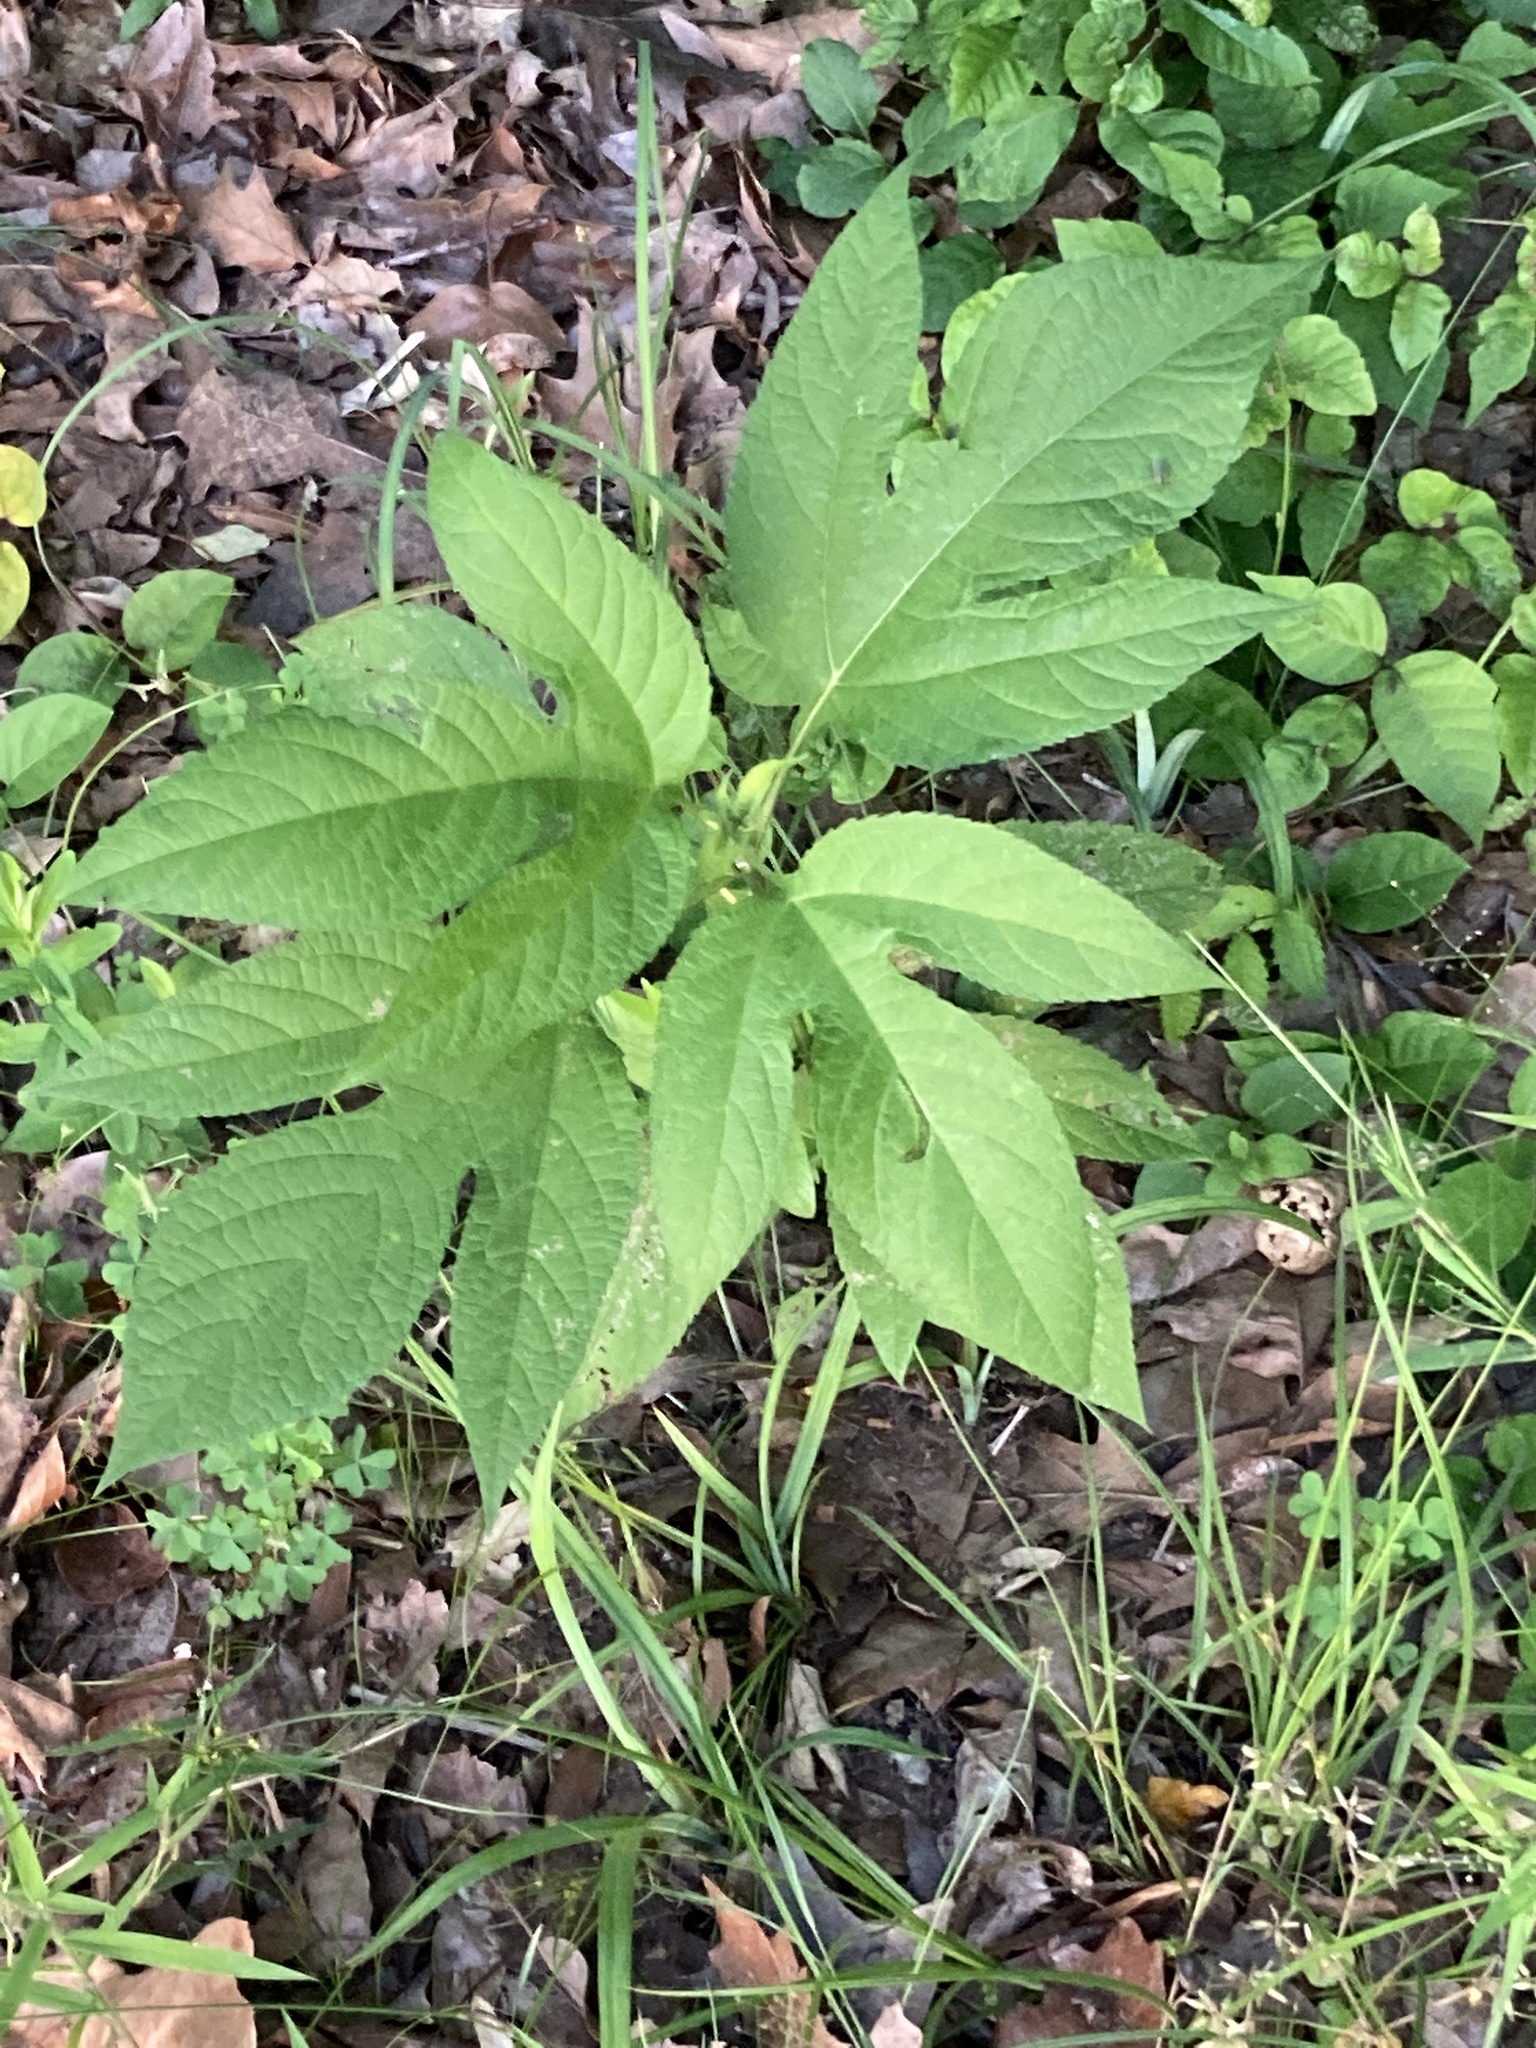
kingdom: Plantae
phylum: Tracheophyta
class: Magnoliopsida
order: Asterales
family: Asteraceae
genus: Ambrosia
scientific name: Ambrosia trifida
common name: Giant ragweed
